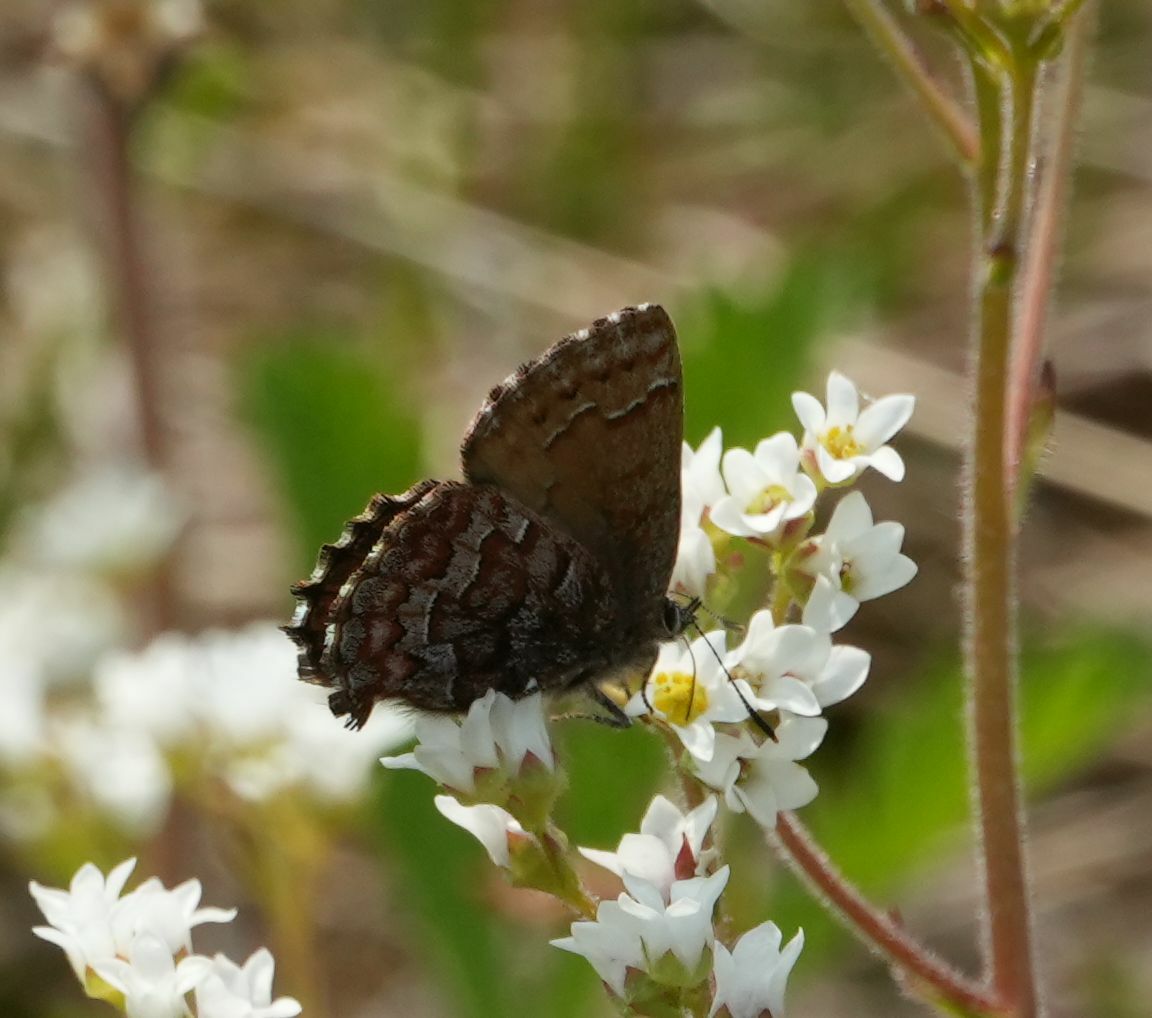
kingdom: Animalia
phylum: Arthropoda
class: Insecta
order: Lepidoptera
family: Lycaenidae
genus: Incisalia
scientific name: Incisalia niphon
